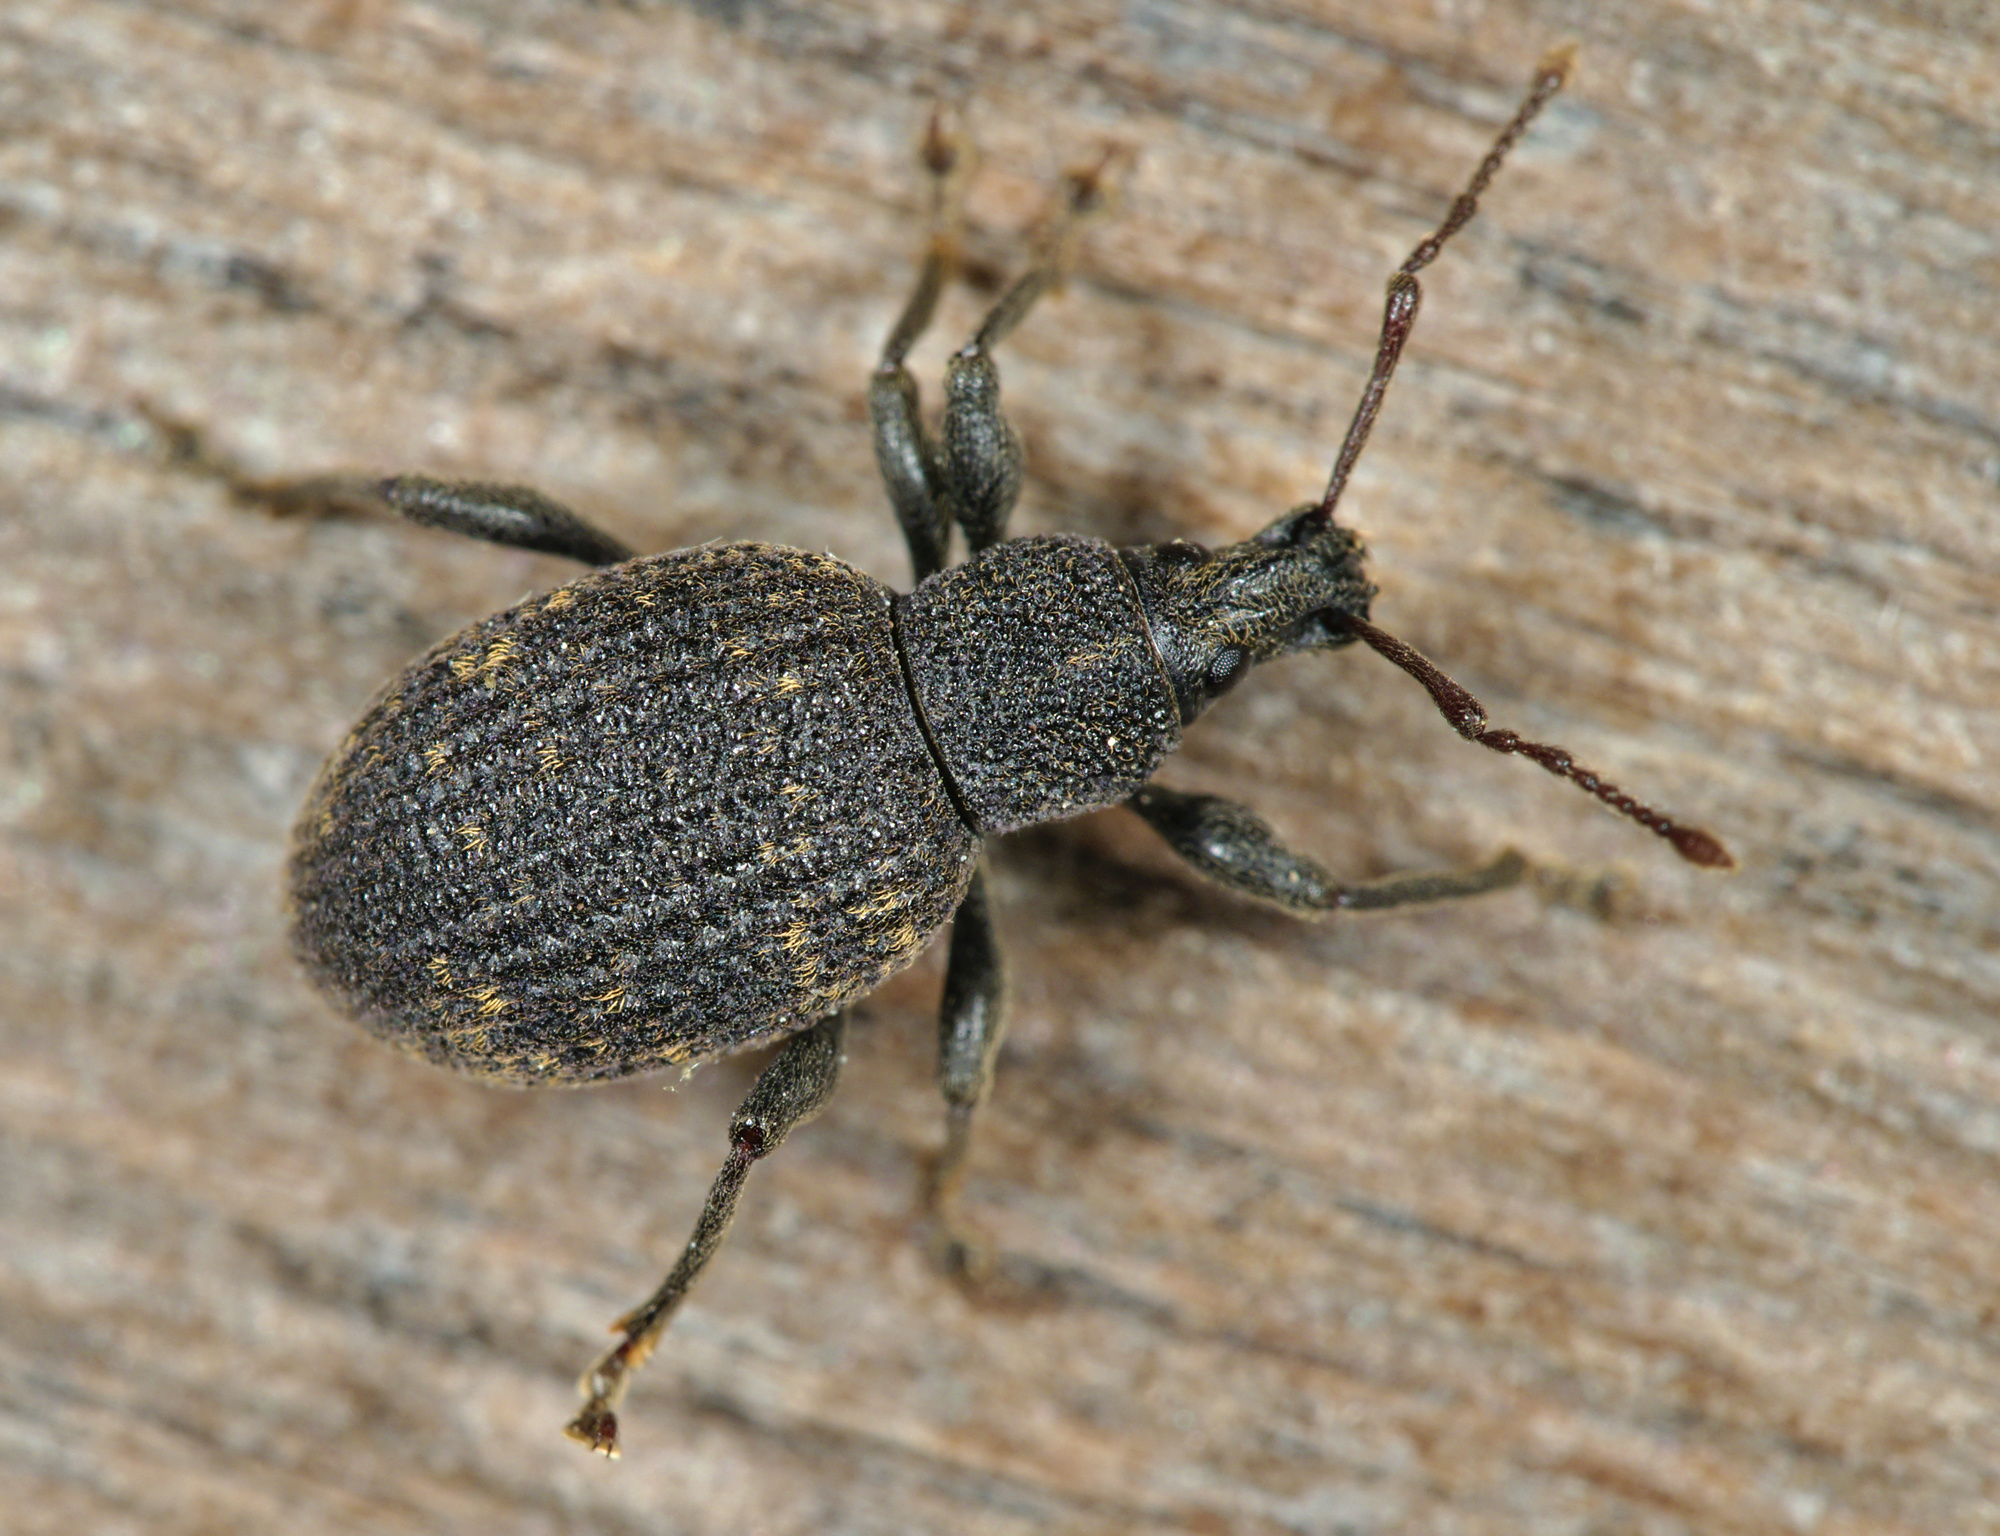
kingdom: Animalia
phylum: Arthropoda
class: Insecta
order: Coleoptera
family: Curculionidae
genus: Otiorhynchus
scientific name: Otiorhynchus sulcatus
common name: Black vine weevil
